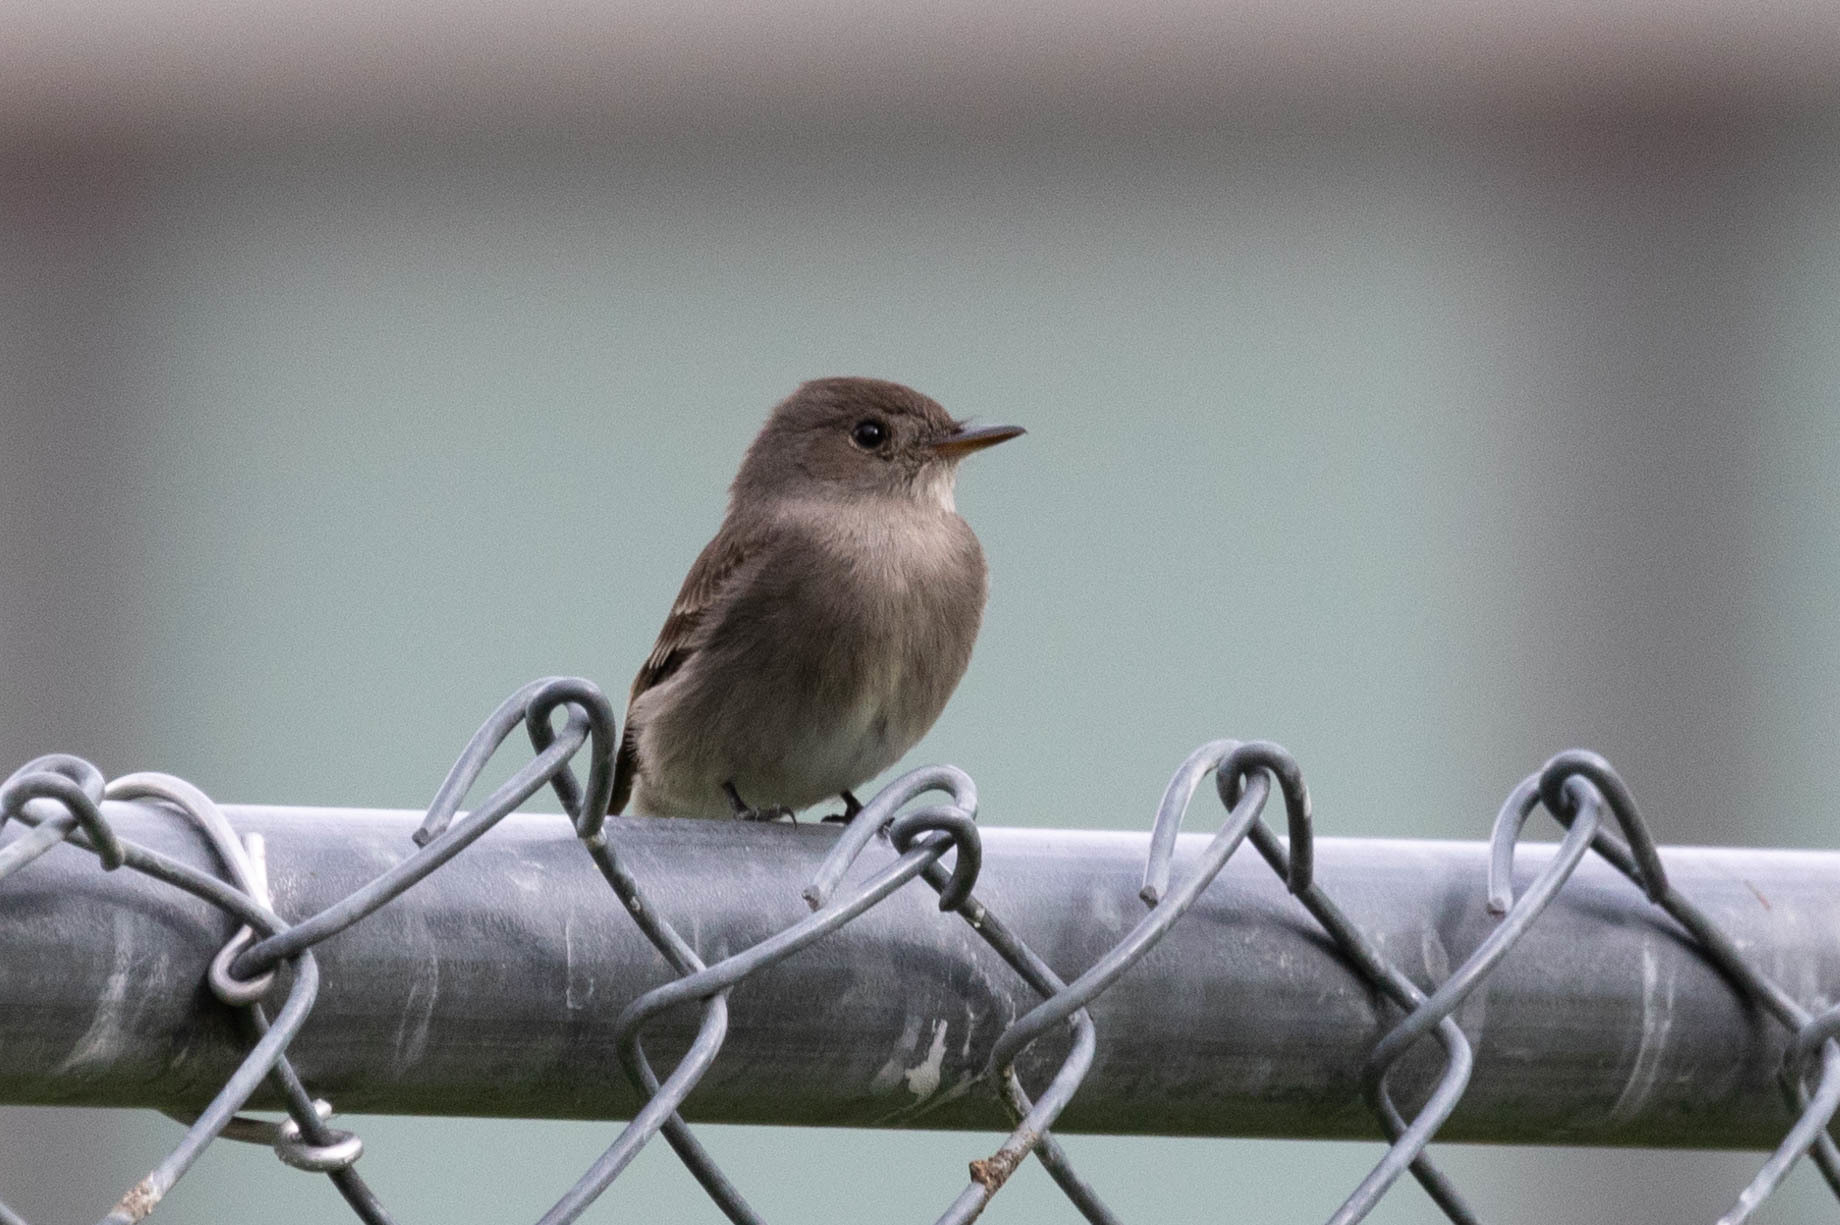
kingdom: Animalia
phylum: Chordata
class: Aves
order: Passeriformes
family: Tyrannidae
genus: Contopus
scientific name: Contopus sordidulus
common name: Western wood-pewee
